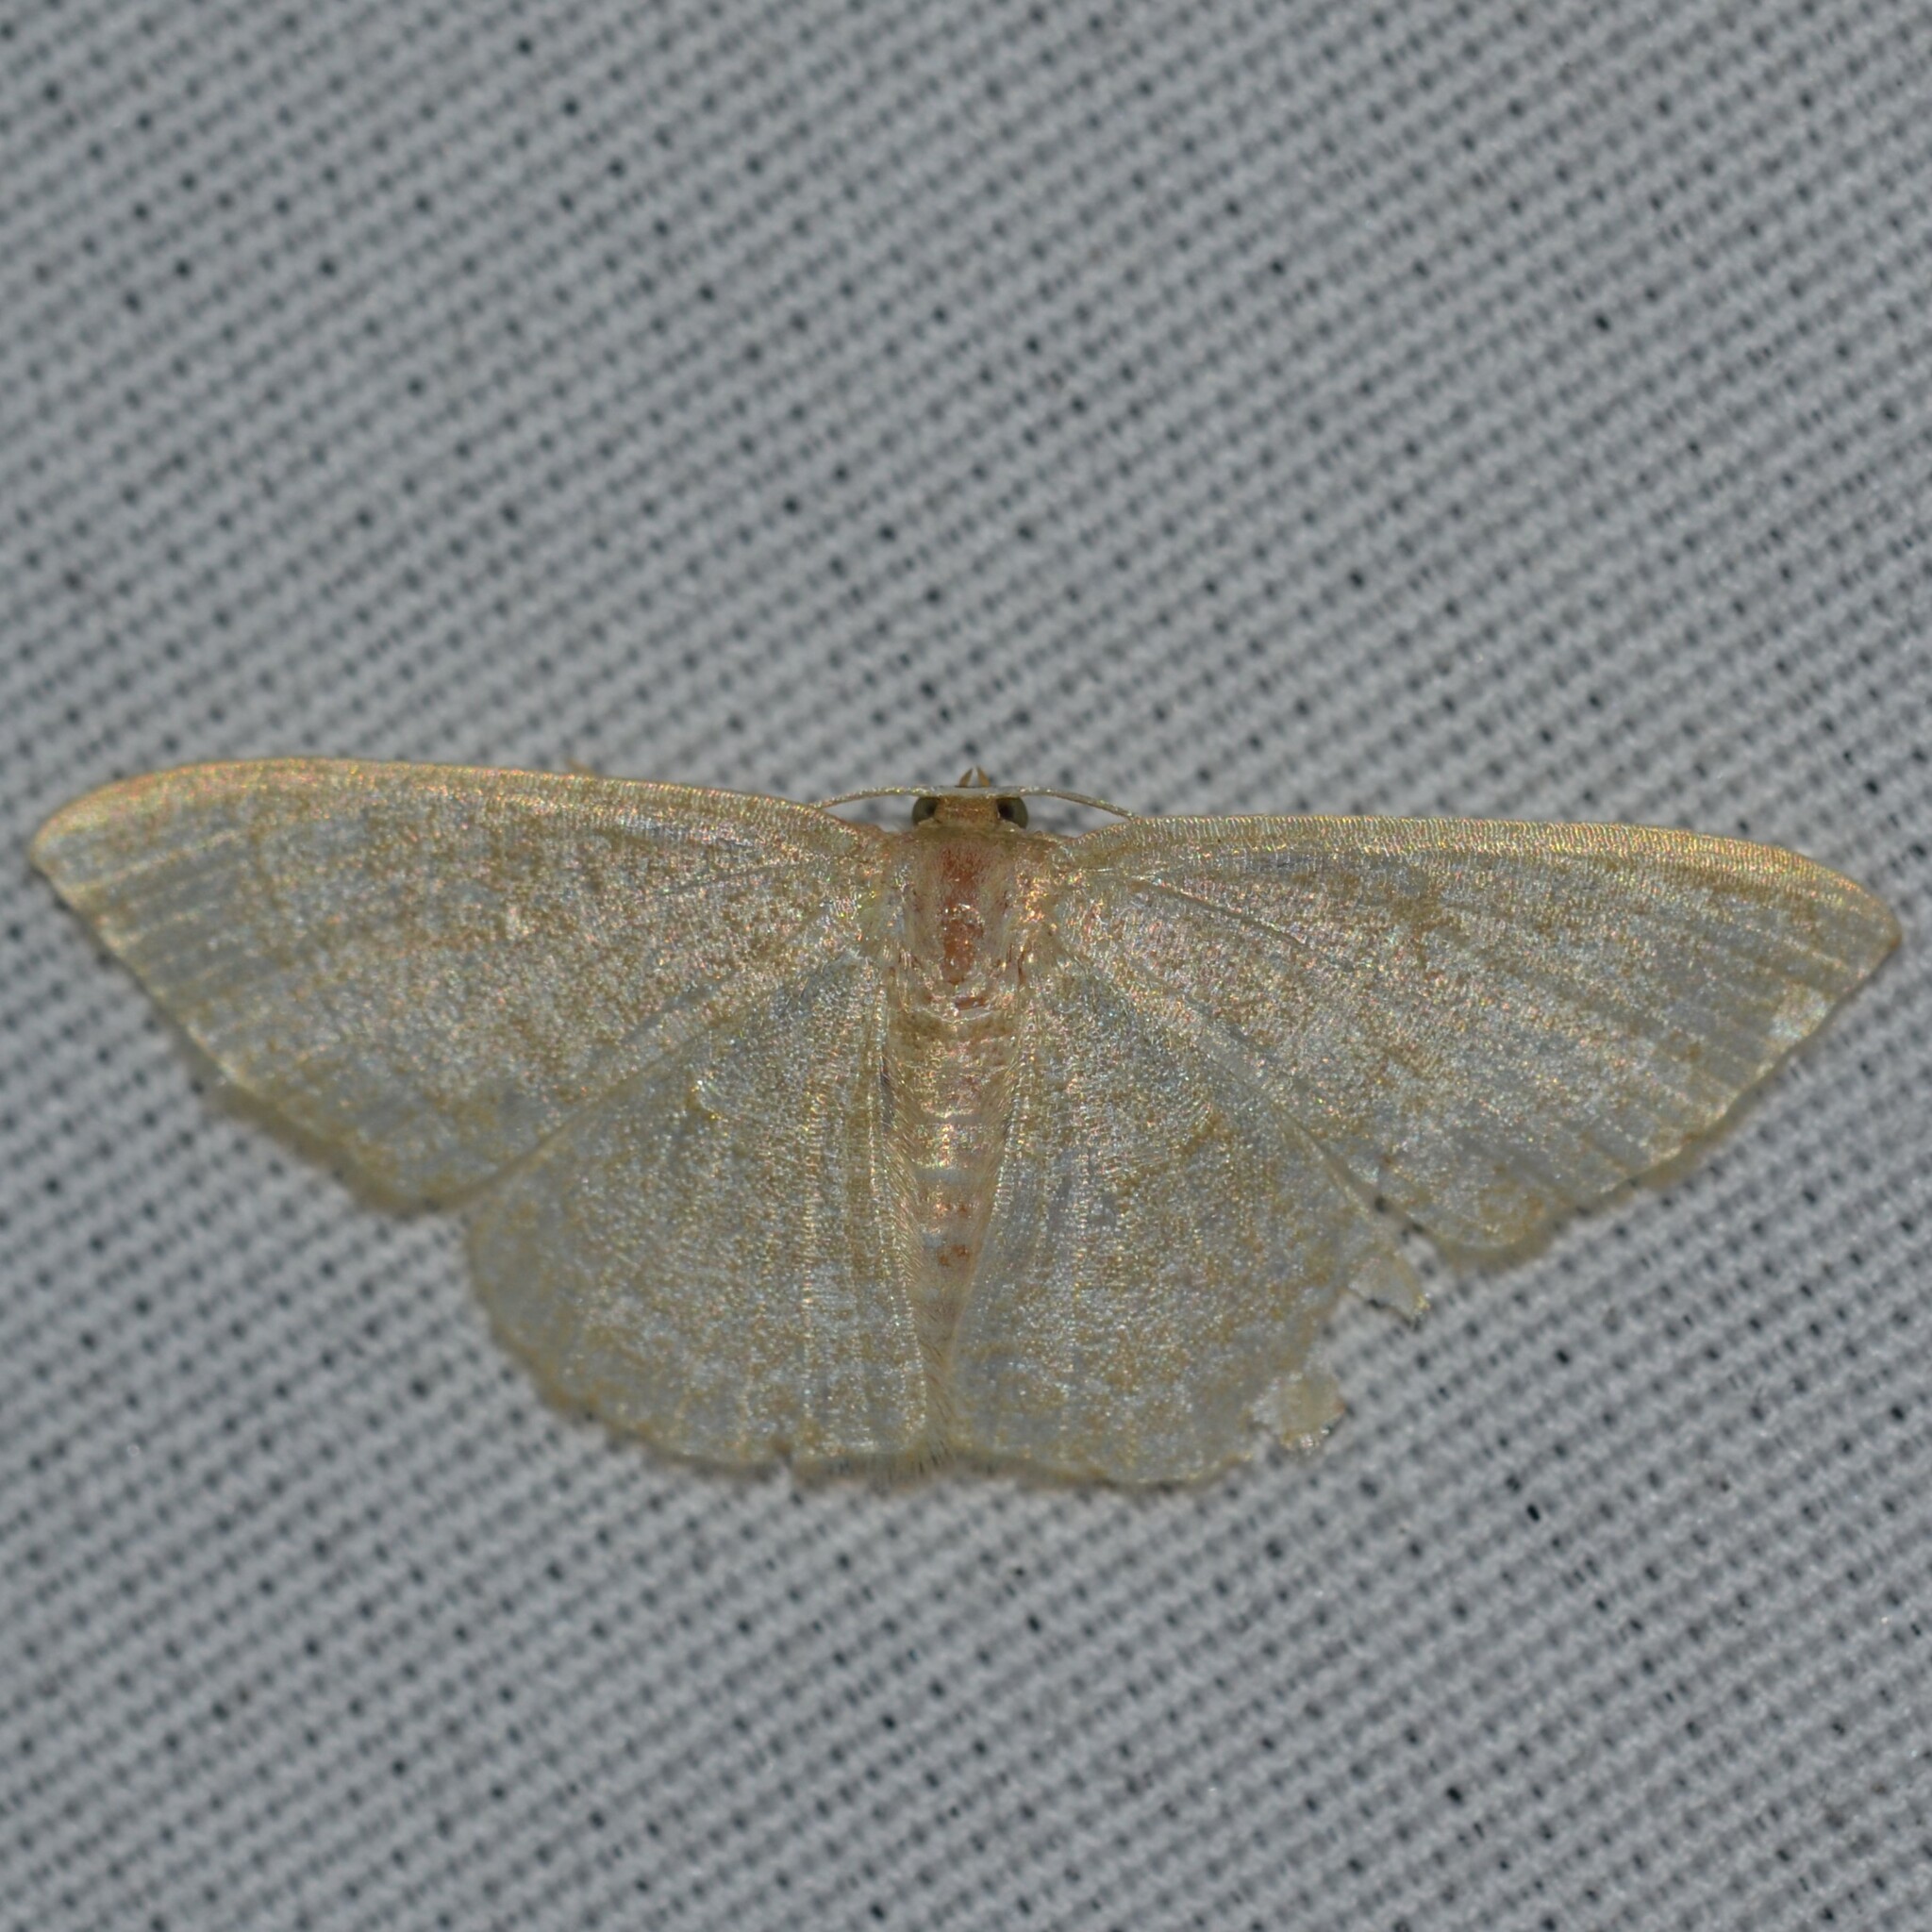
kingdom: Animalia
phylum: Arthropoda
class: Insecta
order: Lepidoptera
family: Geometridae
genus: Pleuroprucha
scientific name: Pleuroprucha asthenaria
